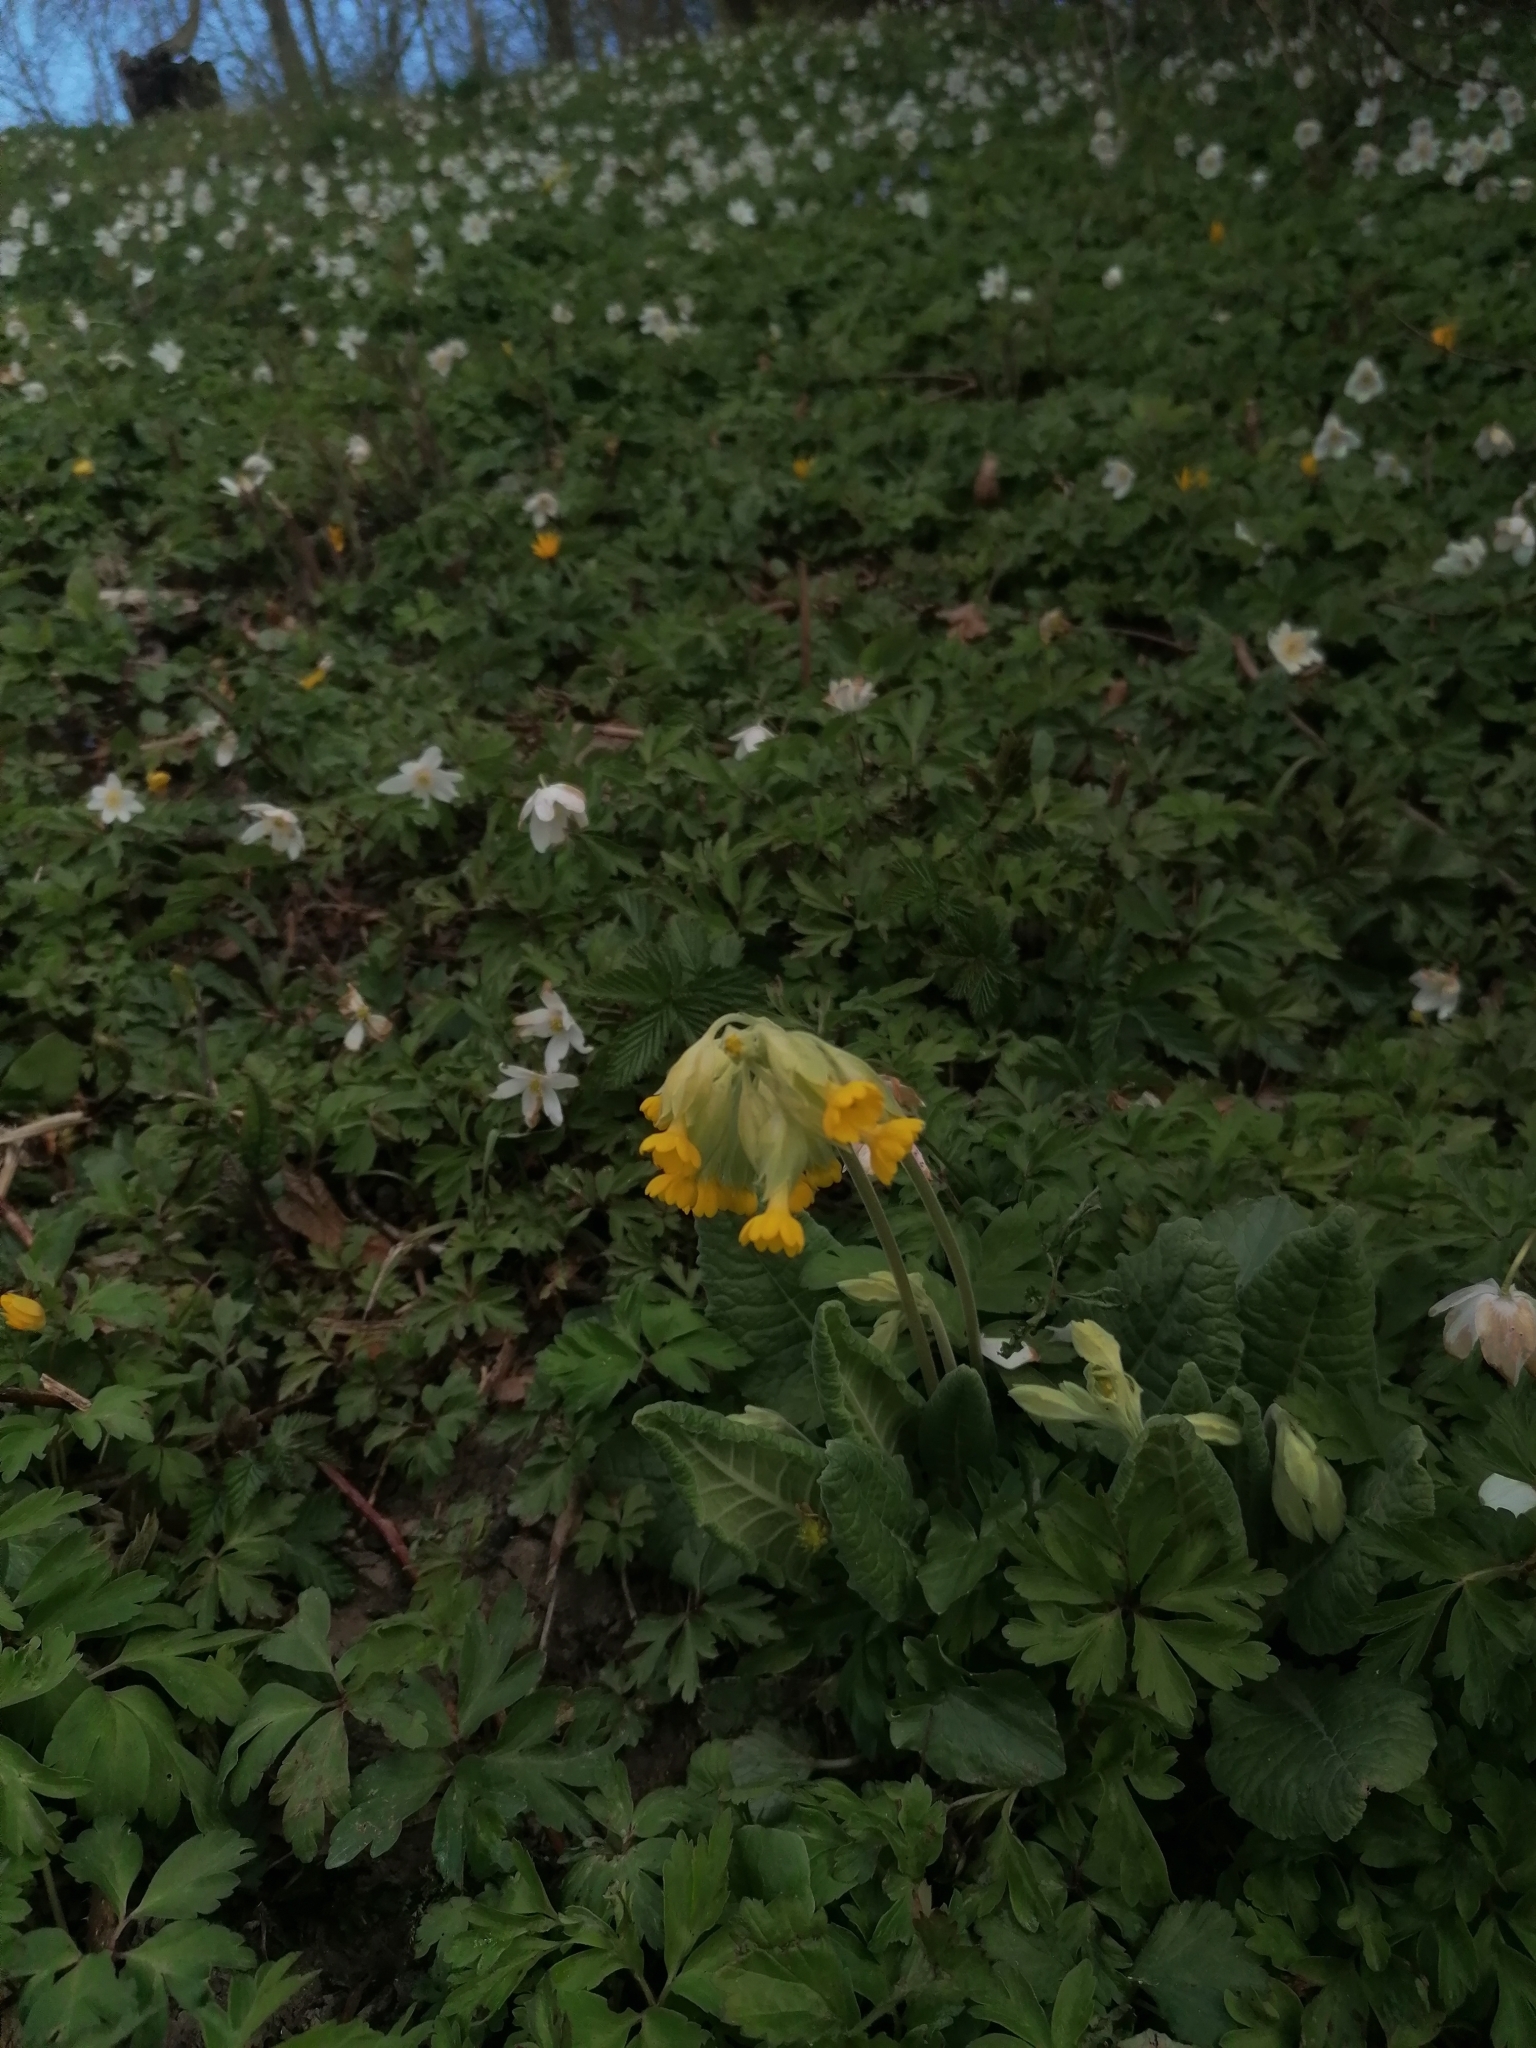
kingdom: Plantae
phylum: Tracheophyta
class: Magnoliopsida
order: Ericales
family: Primulaceae
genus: Primula
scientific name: Primula veris
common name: Cowslip
